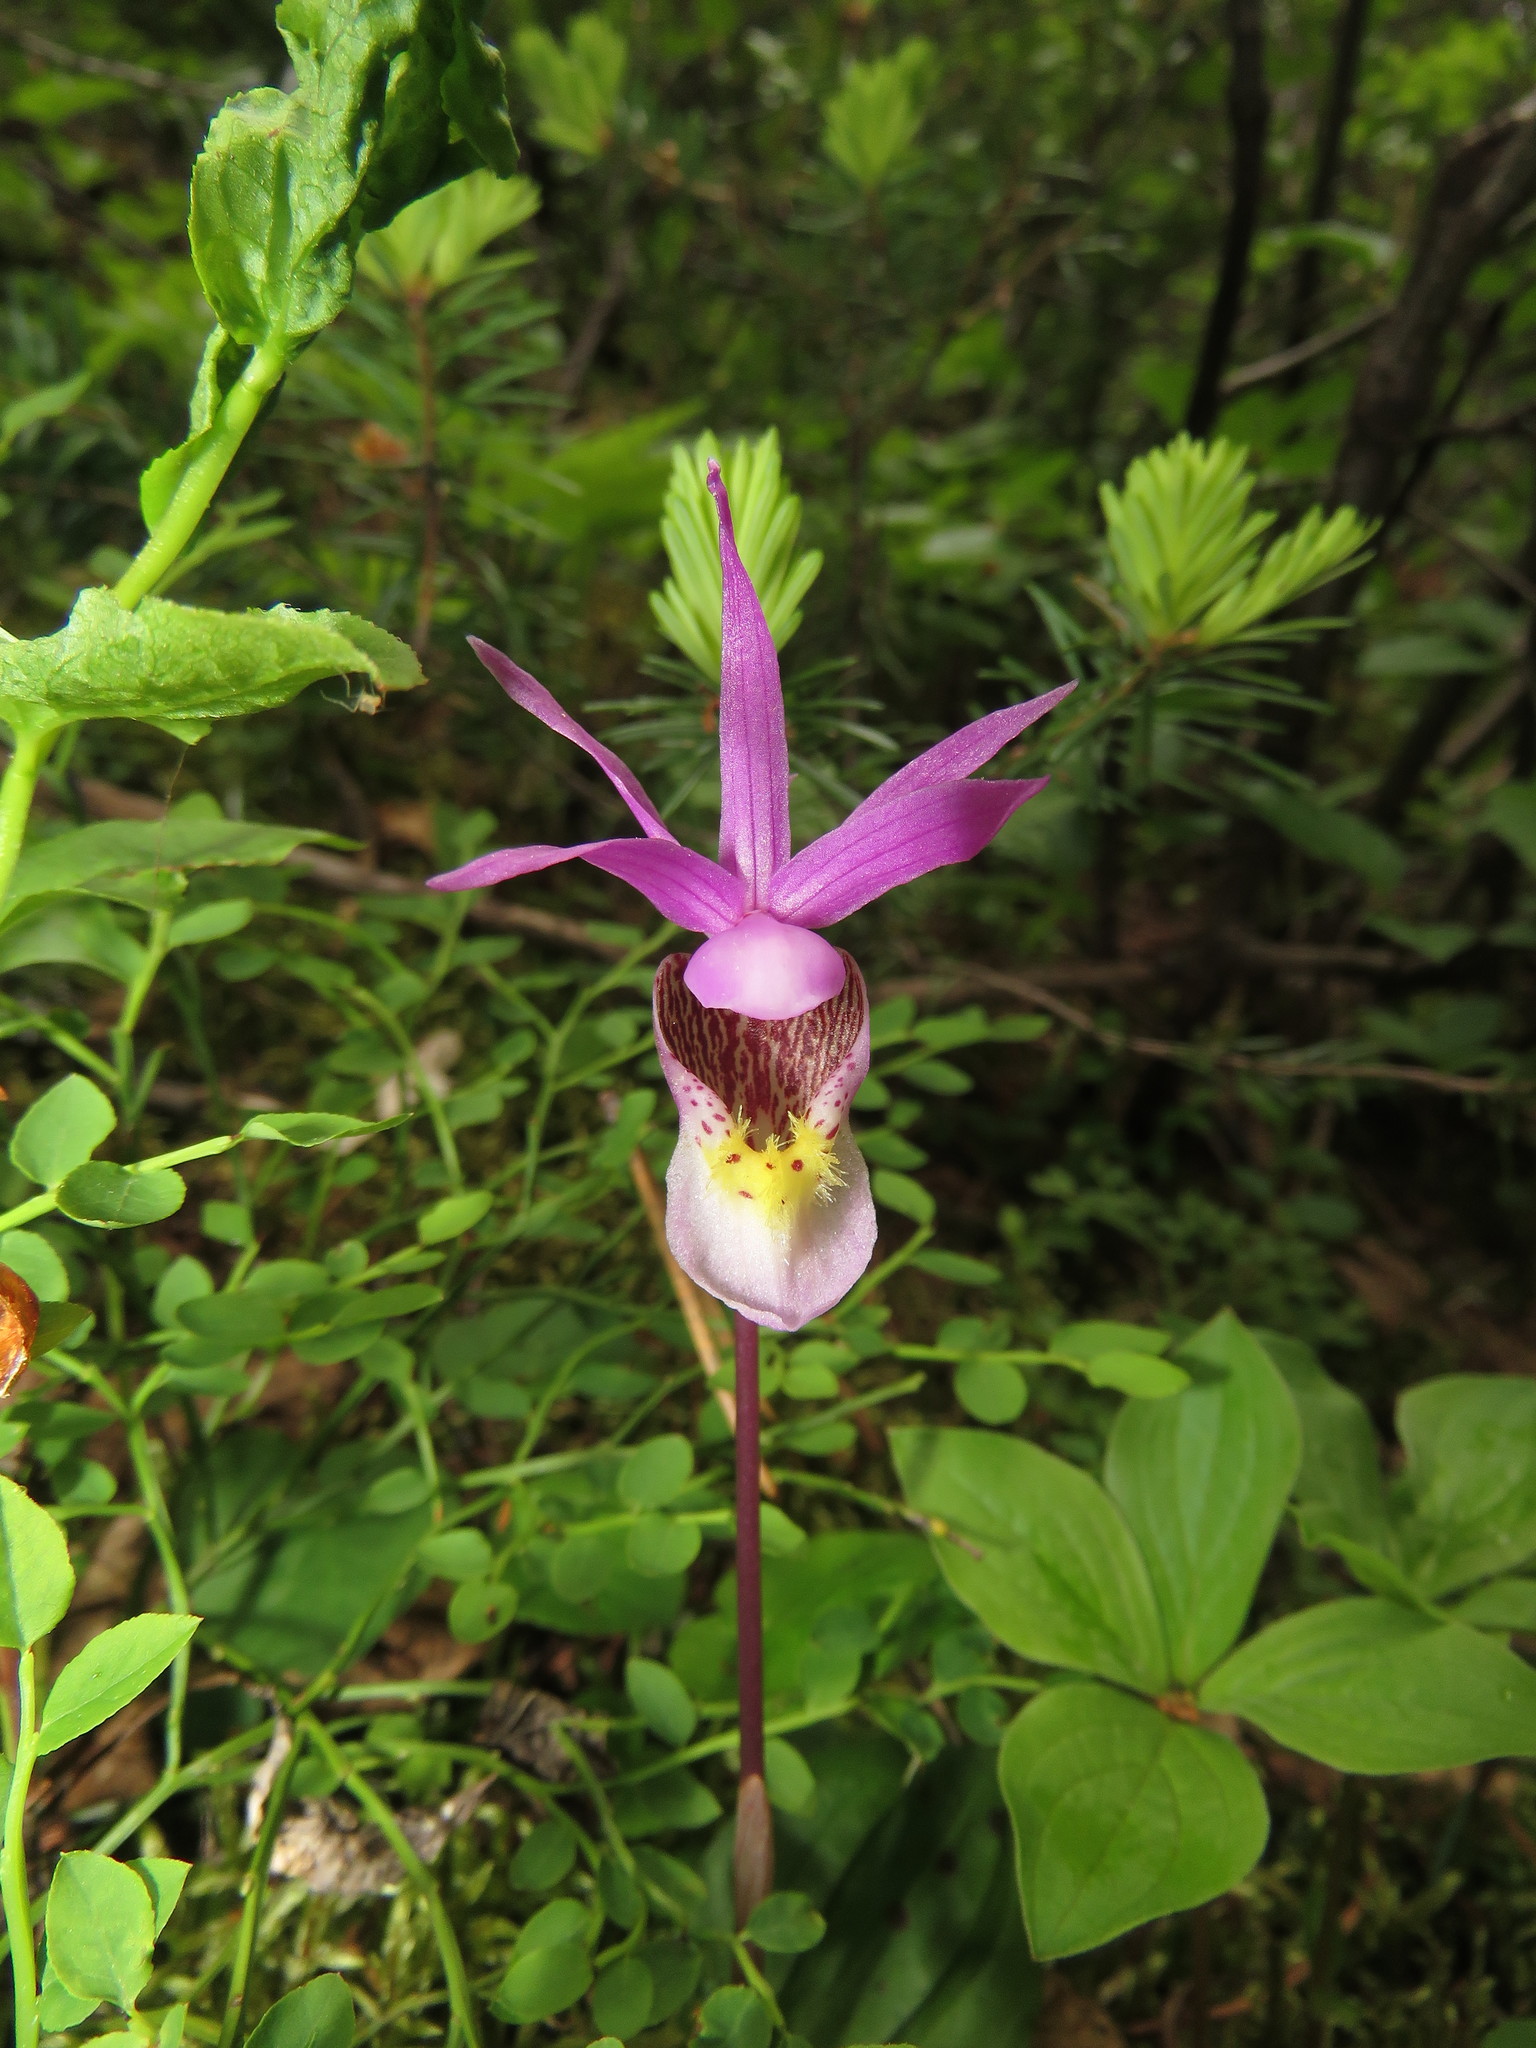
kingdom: Plantae
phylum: Tracheophyta
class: Liliopsida
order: Asparagales
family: Orchidaceae
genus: Calypso
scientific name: Calypso bulbosa
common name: Calypso
